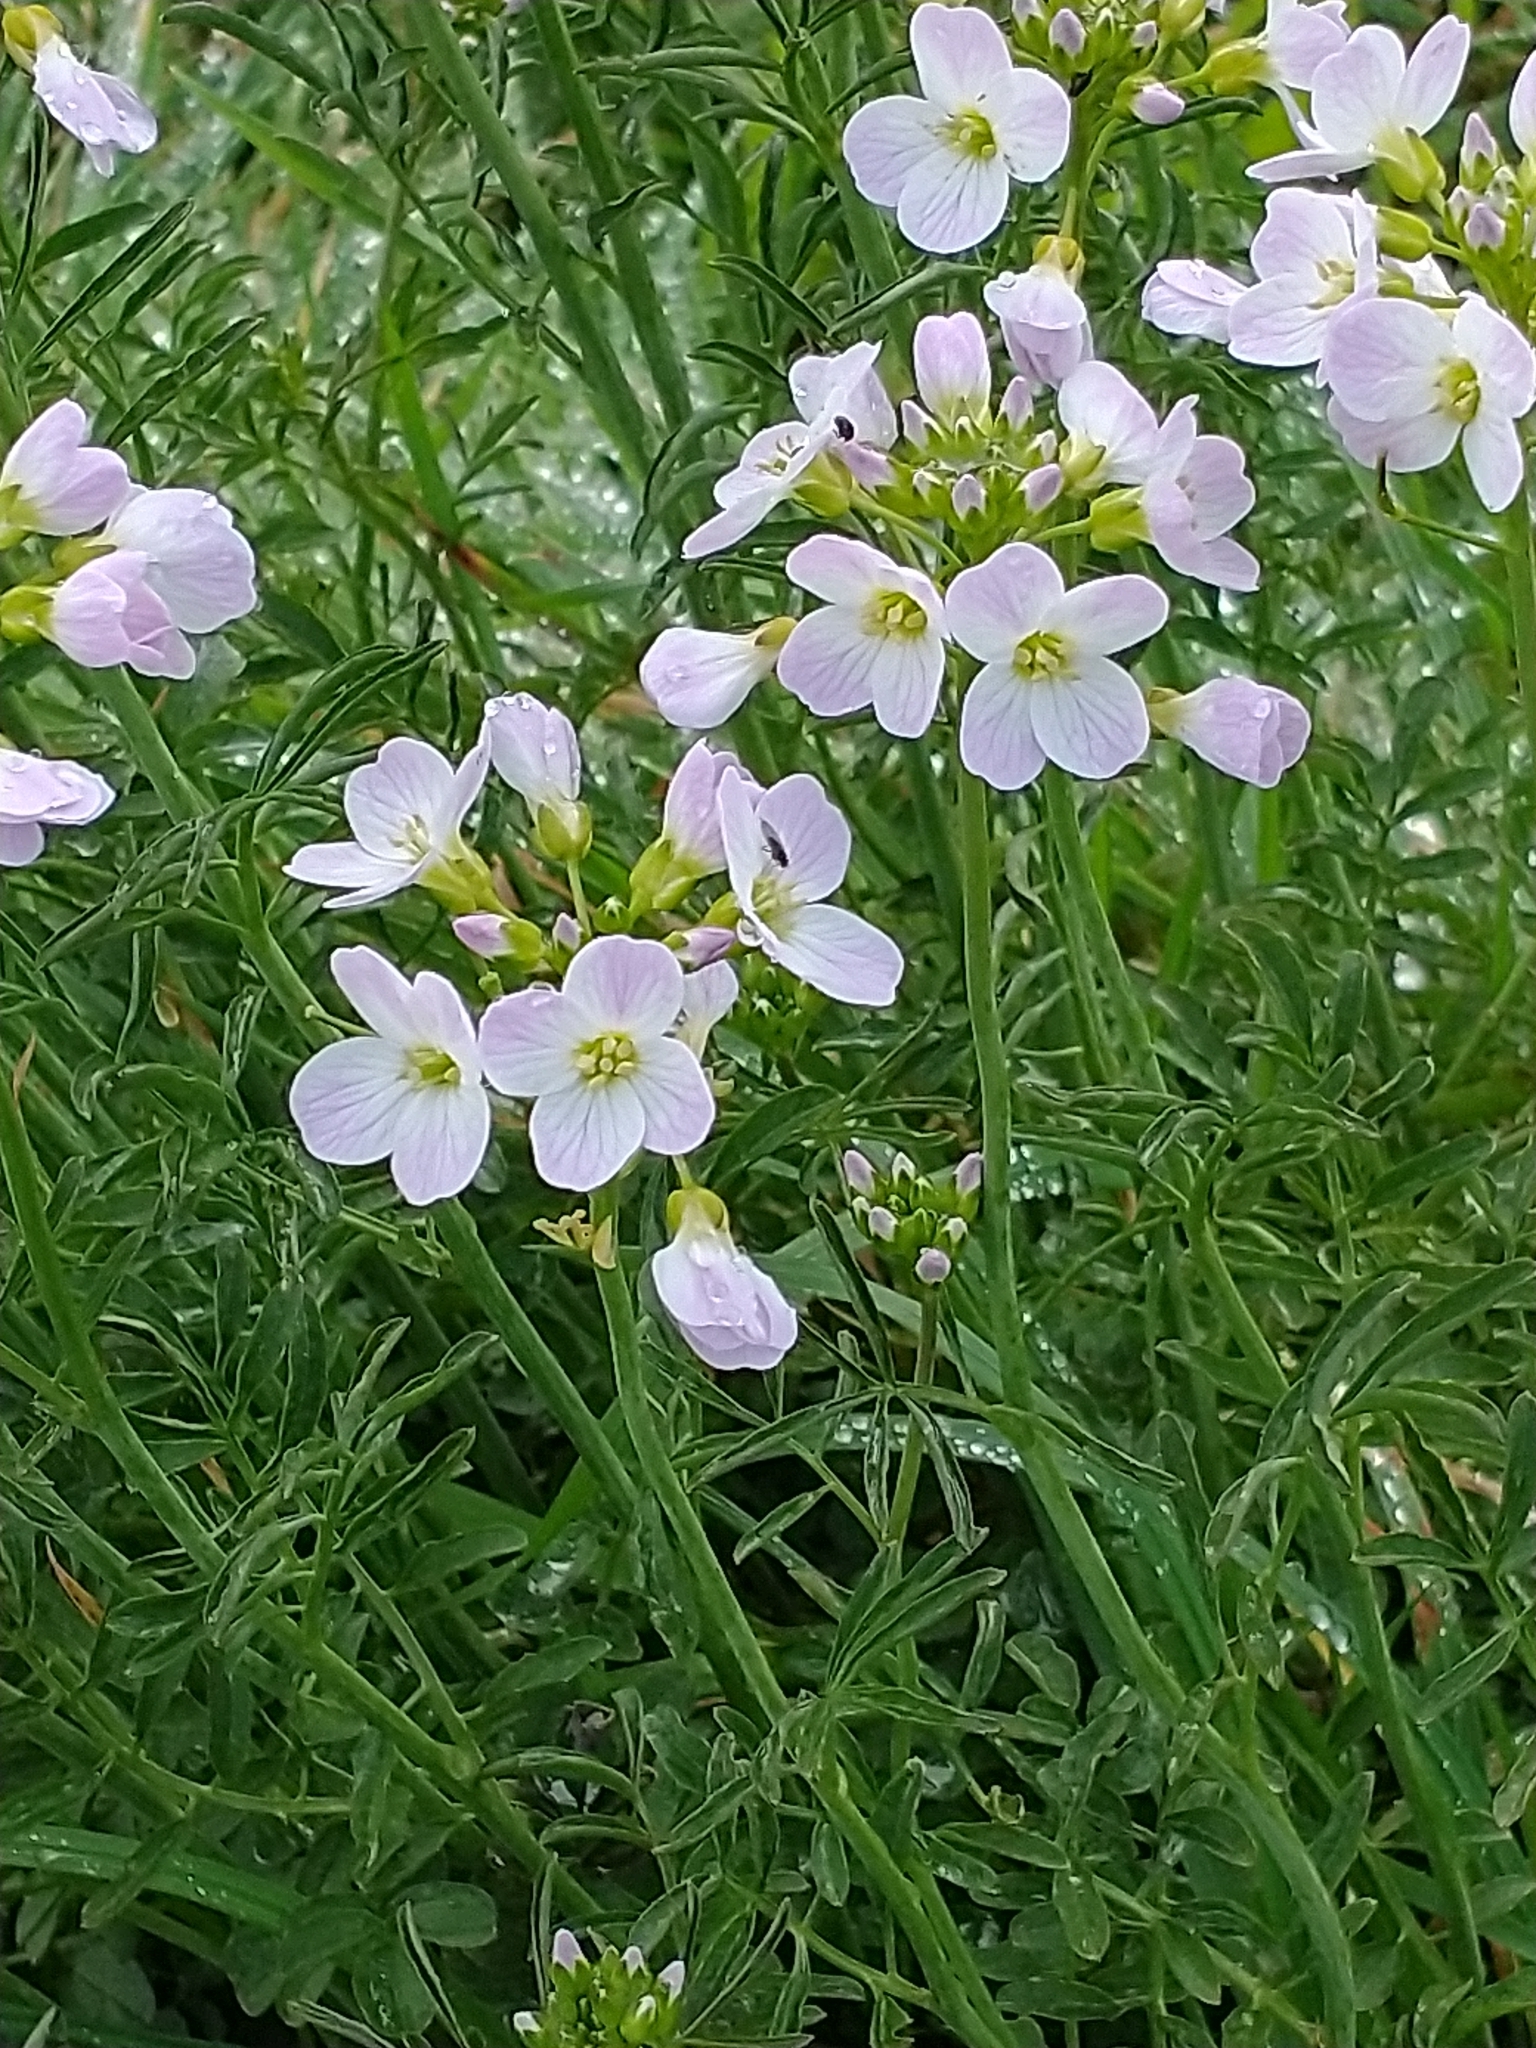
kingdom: Plantae
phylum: Tracheophyta
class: Magnoliopsida
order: Brassicales
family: Brassicaceae
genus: Cardamine
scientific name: Cardamine pratensis
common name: Cuckoo flower
